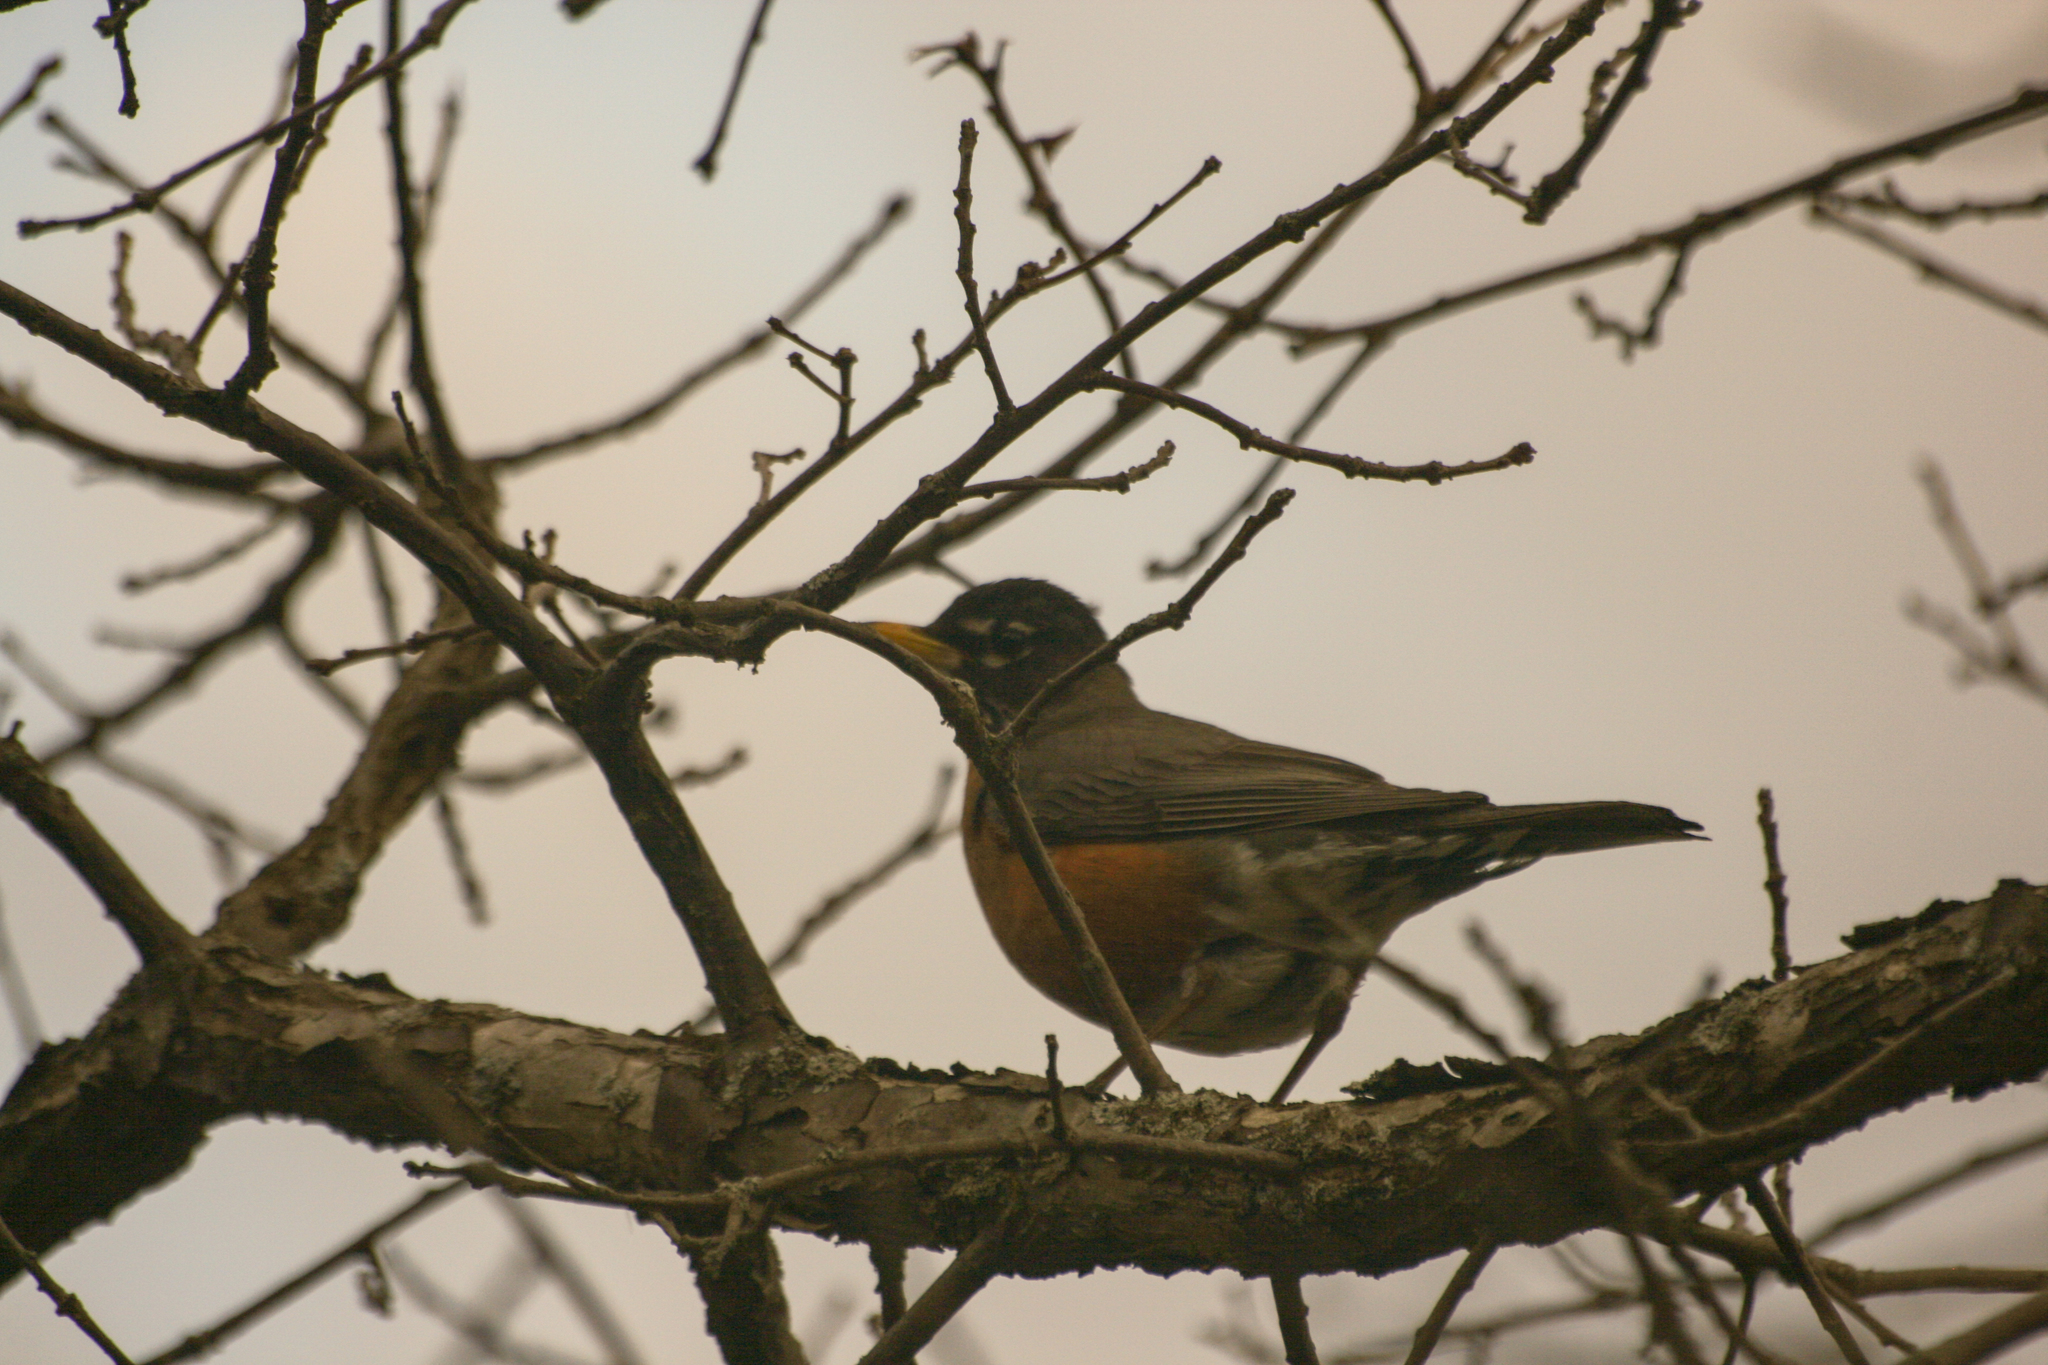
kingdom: Animalia
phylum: Chordata
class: Aves
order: Passeriformes
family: Turdidae
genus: Turdus
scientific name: Turdus migratorius
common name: American robin
